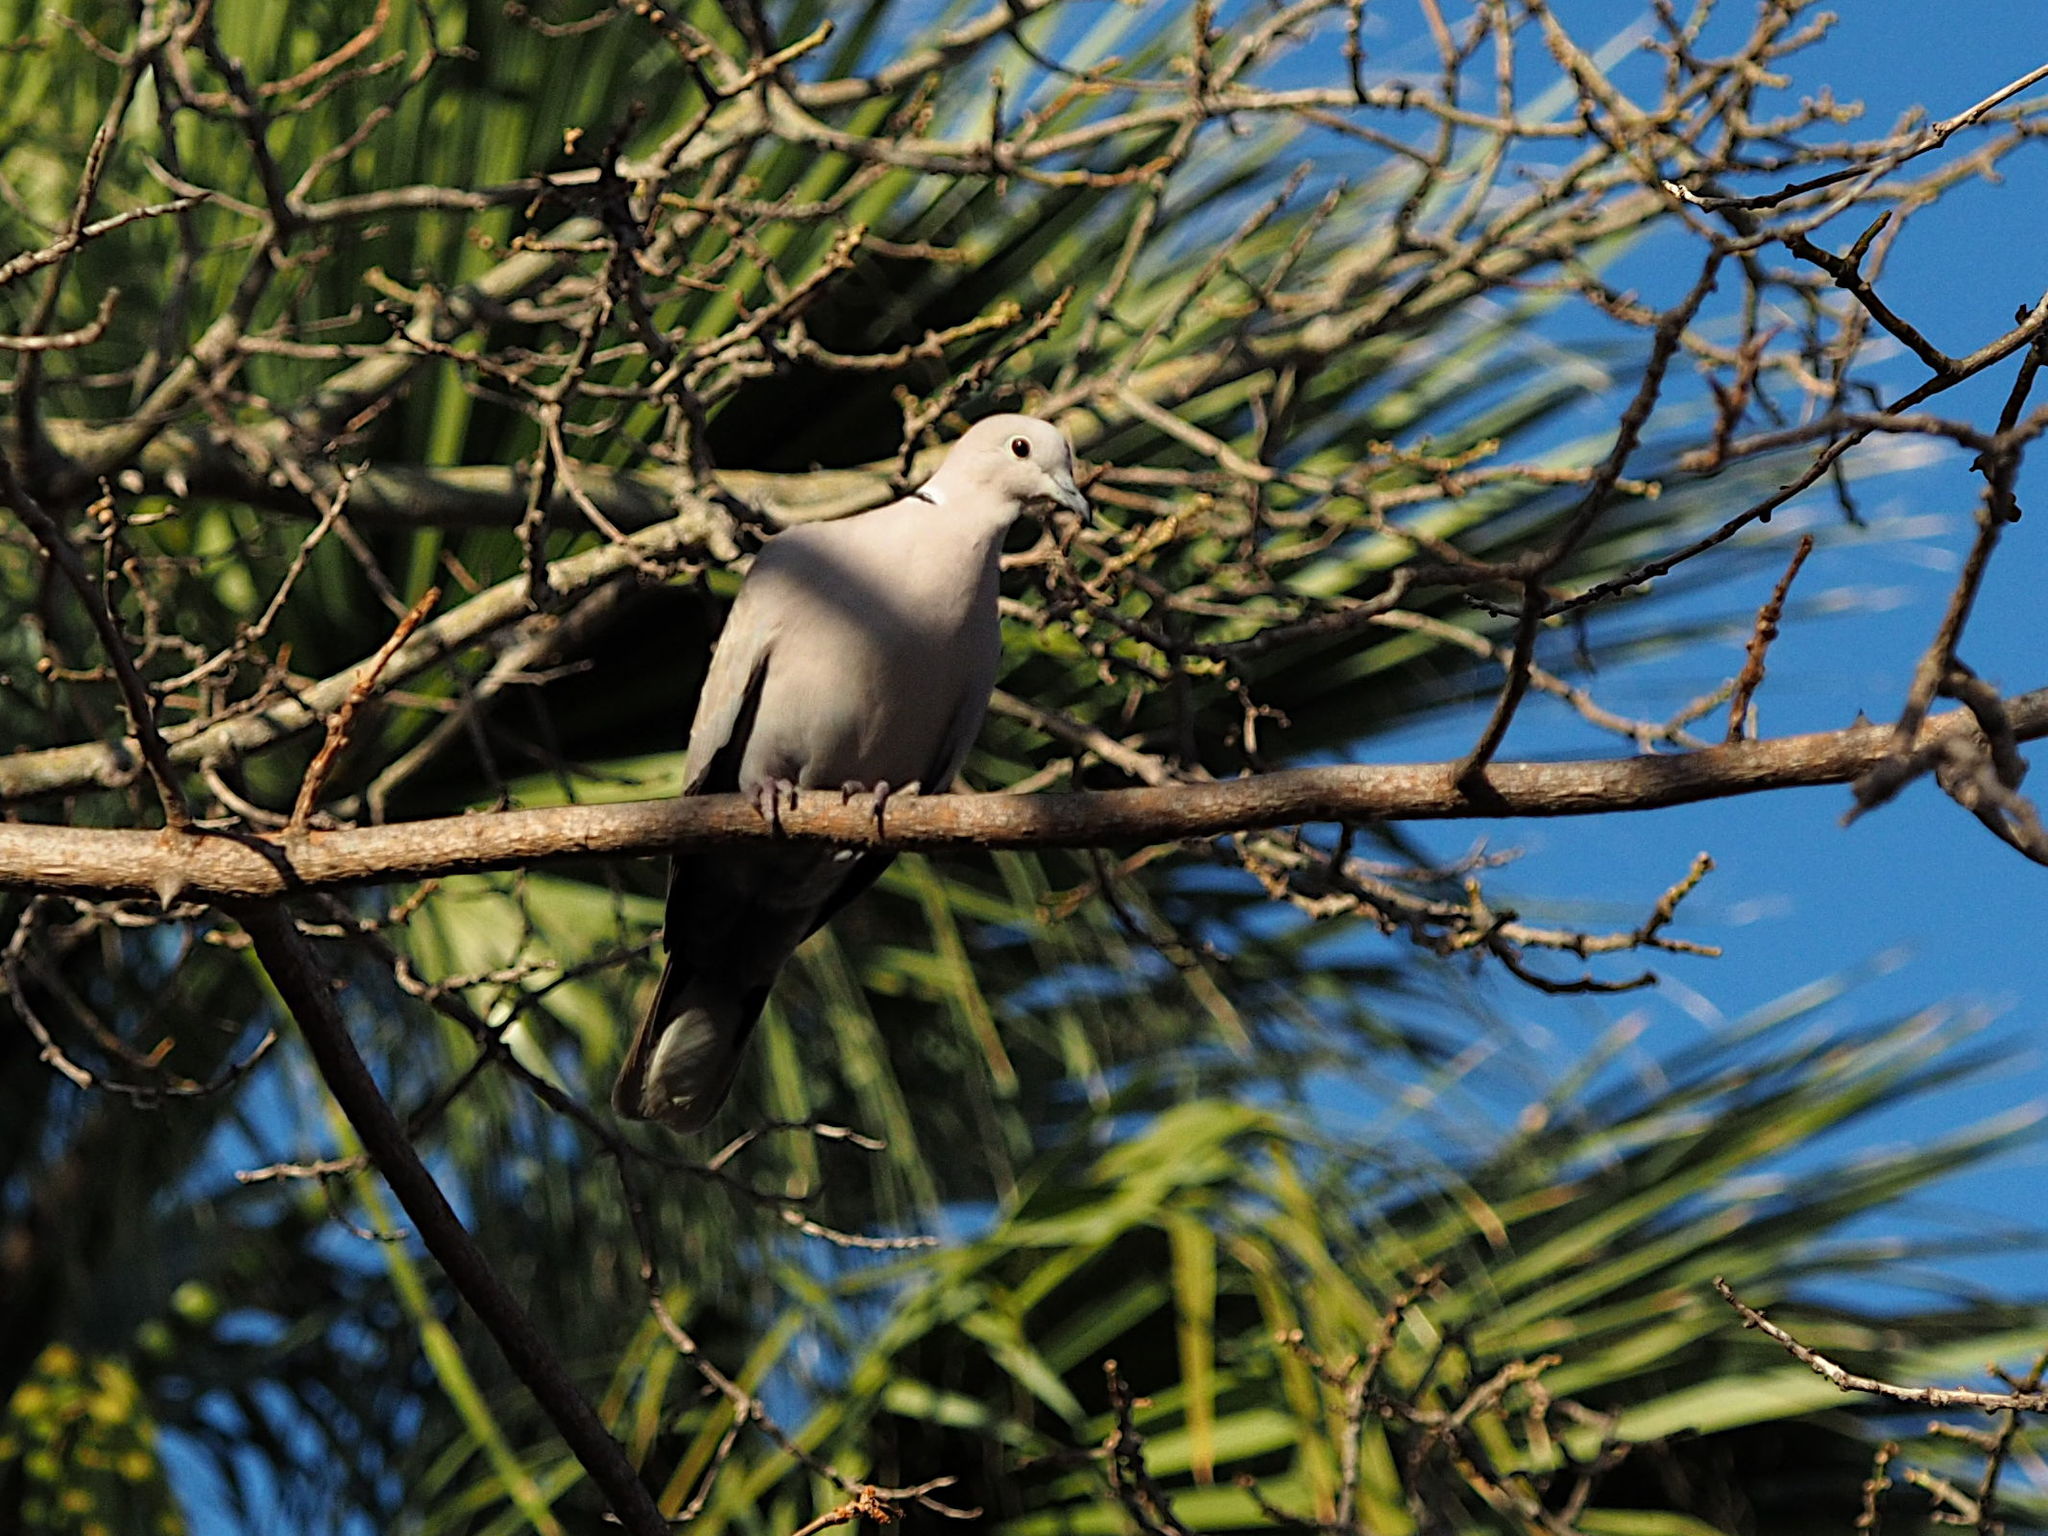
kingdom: Animalia
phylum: Chordata
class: Aves
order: Columbiformes
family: Columbidae
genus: Streptopelia
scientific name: Streptopelia decaocto
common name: Eurasian collared dove
